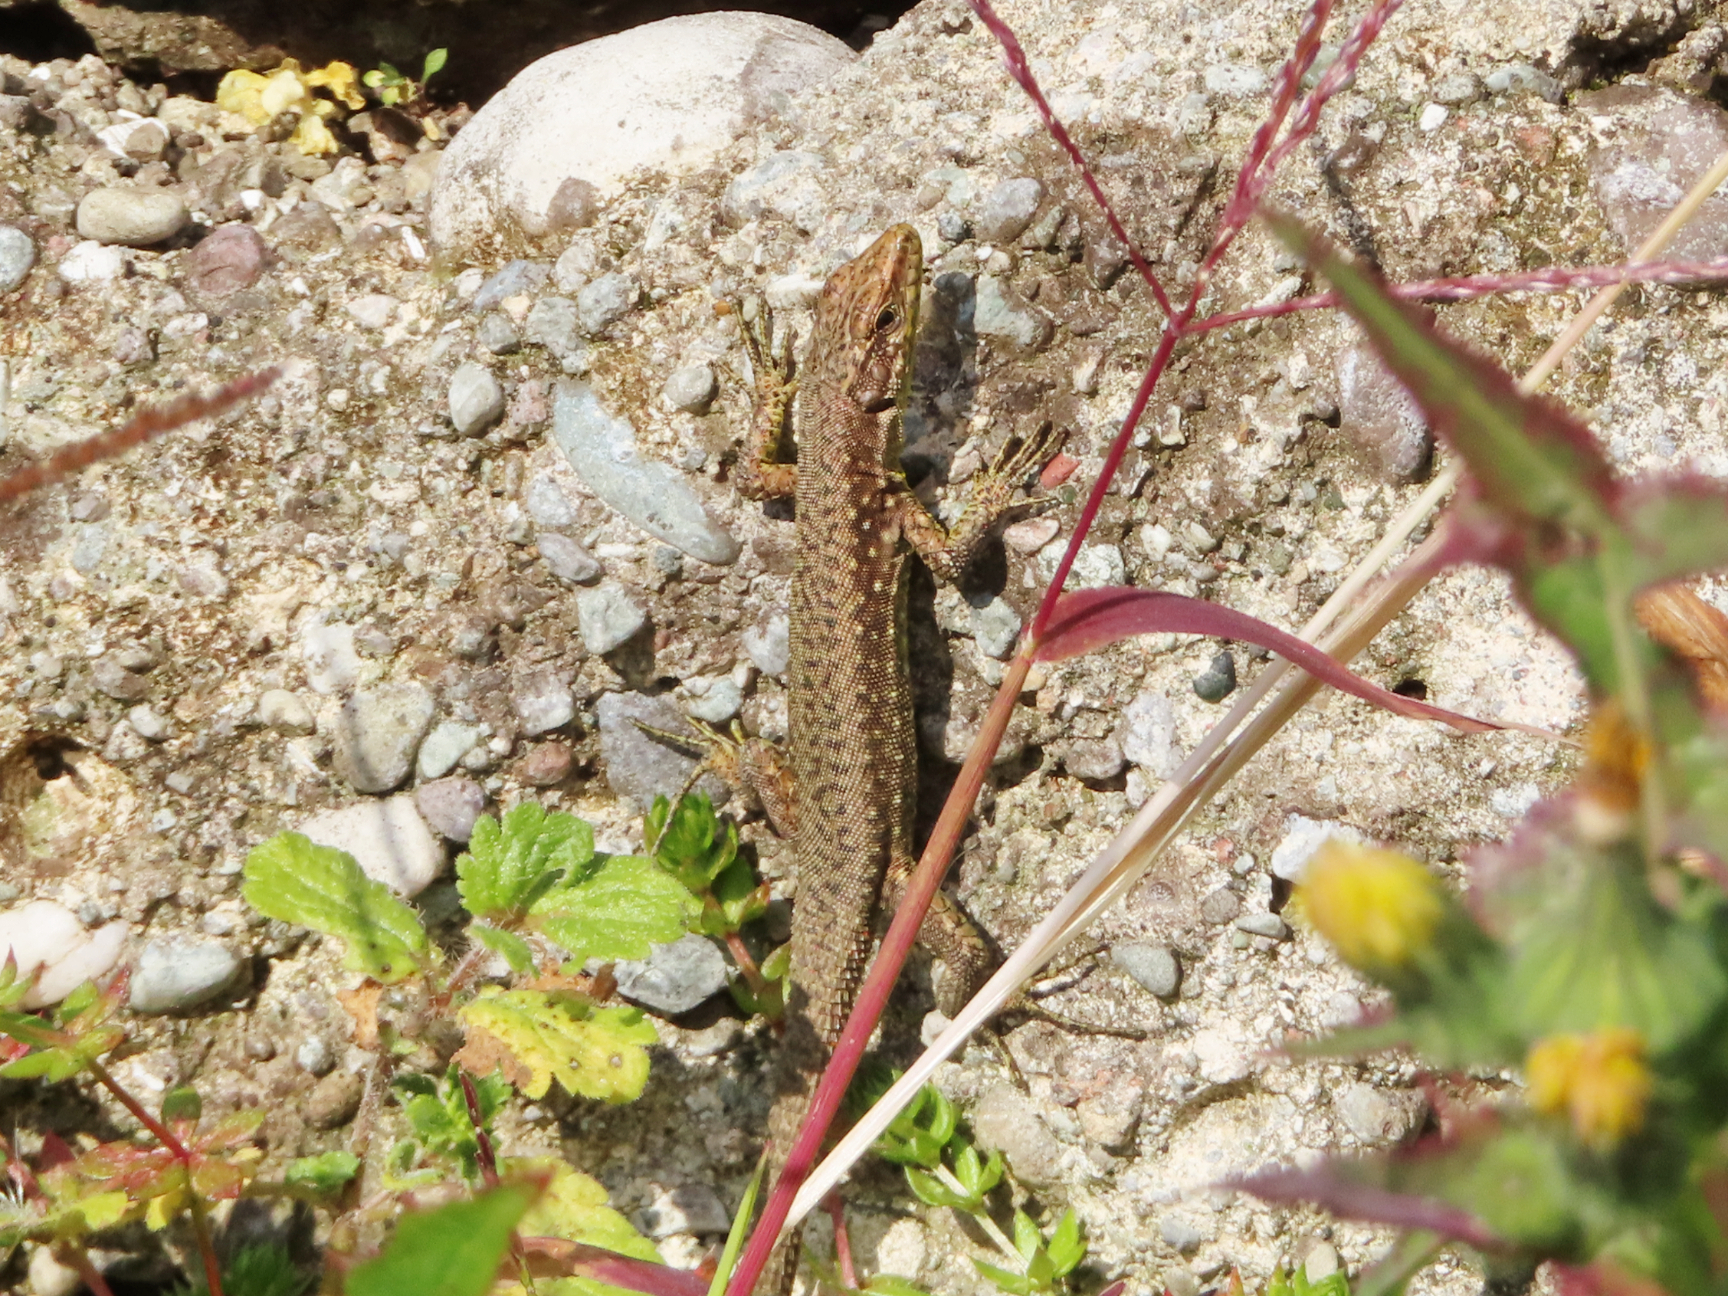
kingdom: Animalia
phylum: Chordata
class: Squamata
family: Lacertidae
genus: Darevskia
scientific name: Darevskia rudis
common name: Spiny-tailed lizard
